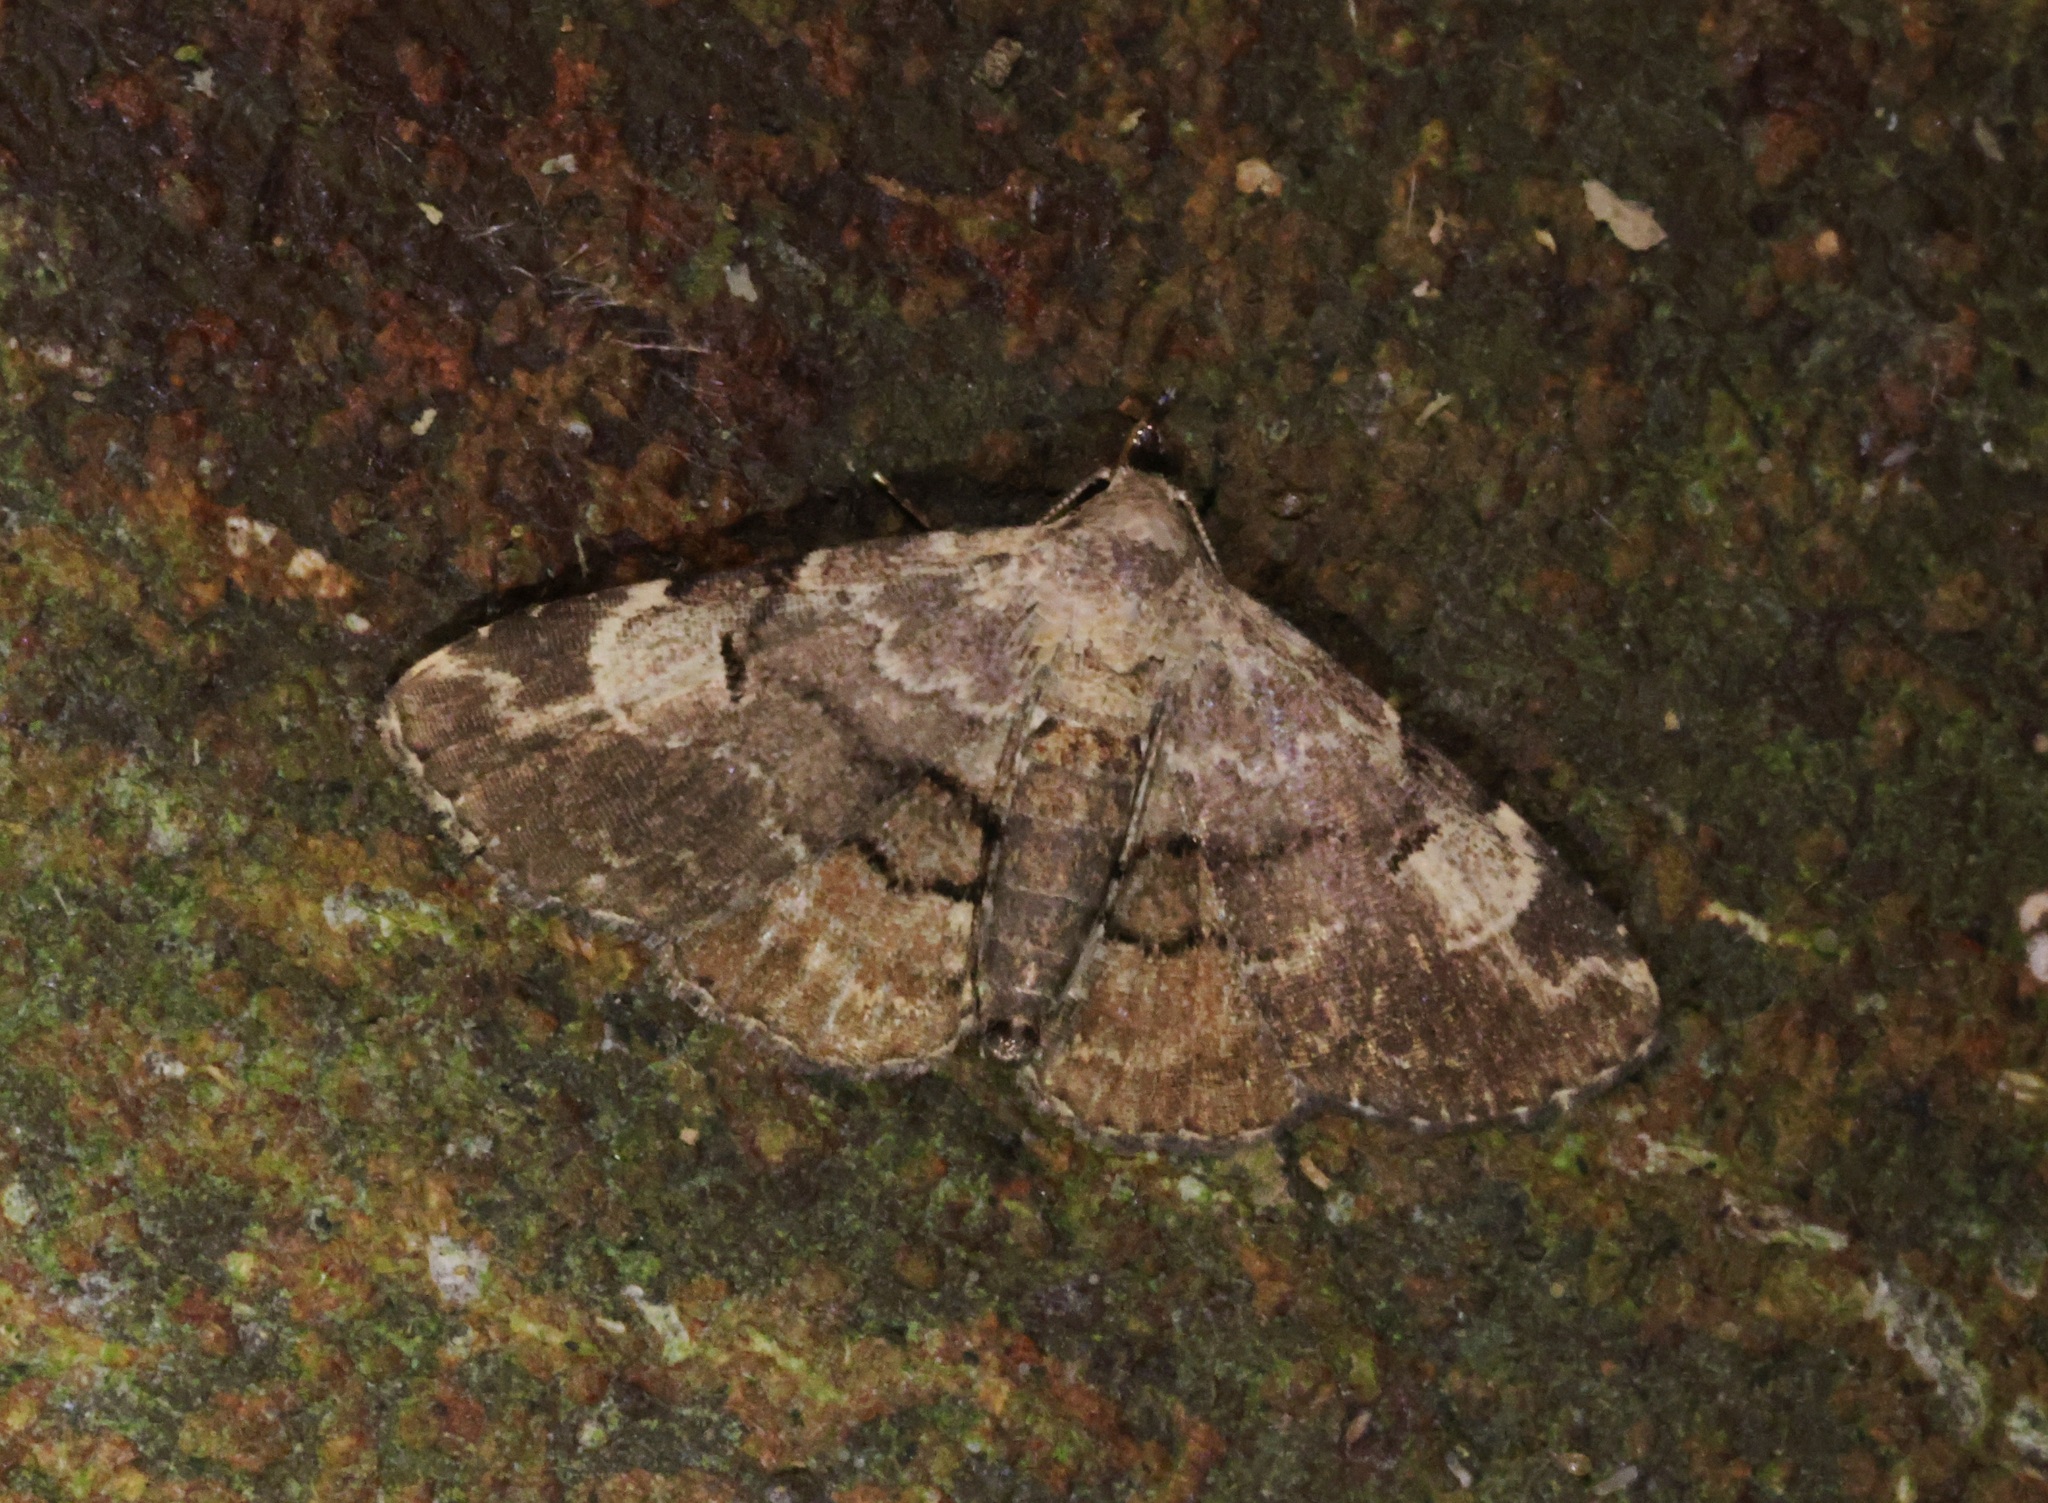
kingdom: Animalia
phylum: Arthropoda
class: Insecta
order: Lepidoptera
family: Erebidae
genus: Maguda
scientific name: Maguda suffusa
